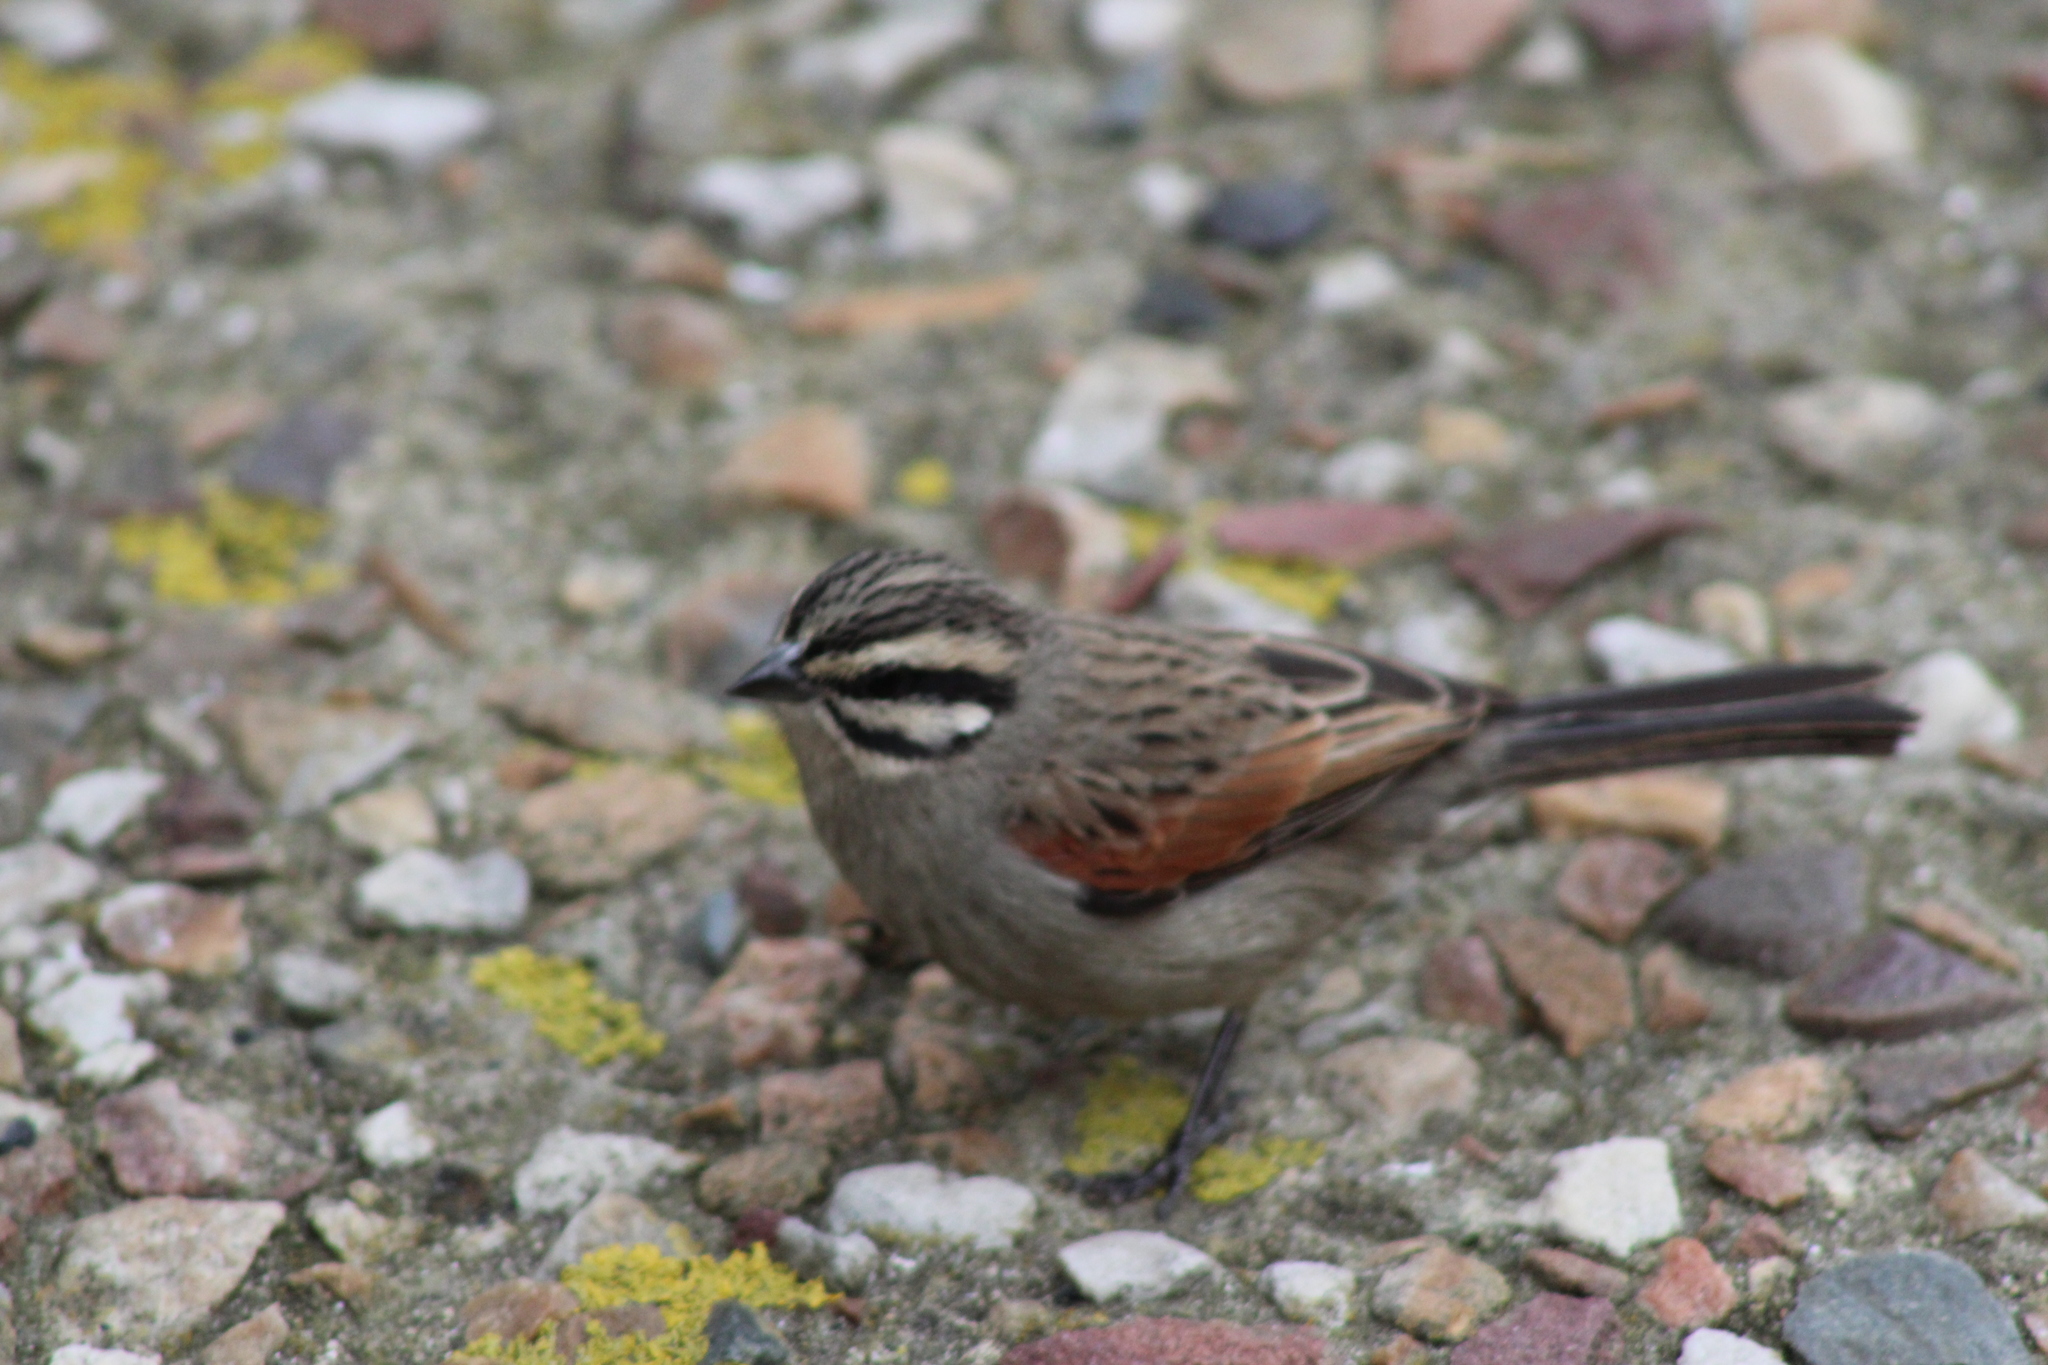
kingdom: Animalia
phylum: Chordata
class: Aves
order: Passeriformes
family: Emberizidae
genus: Emberiza
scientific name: Emberiza capensis
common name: Cape bunting
